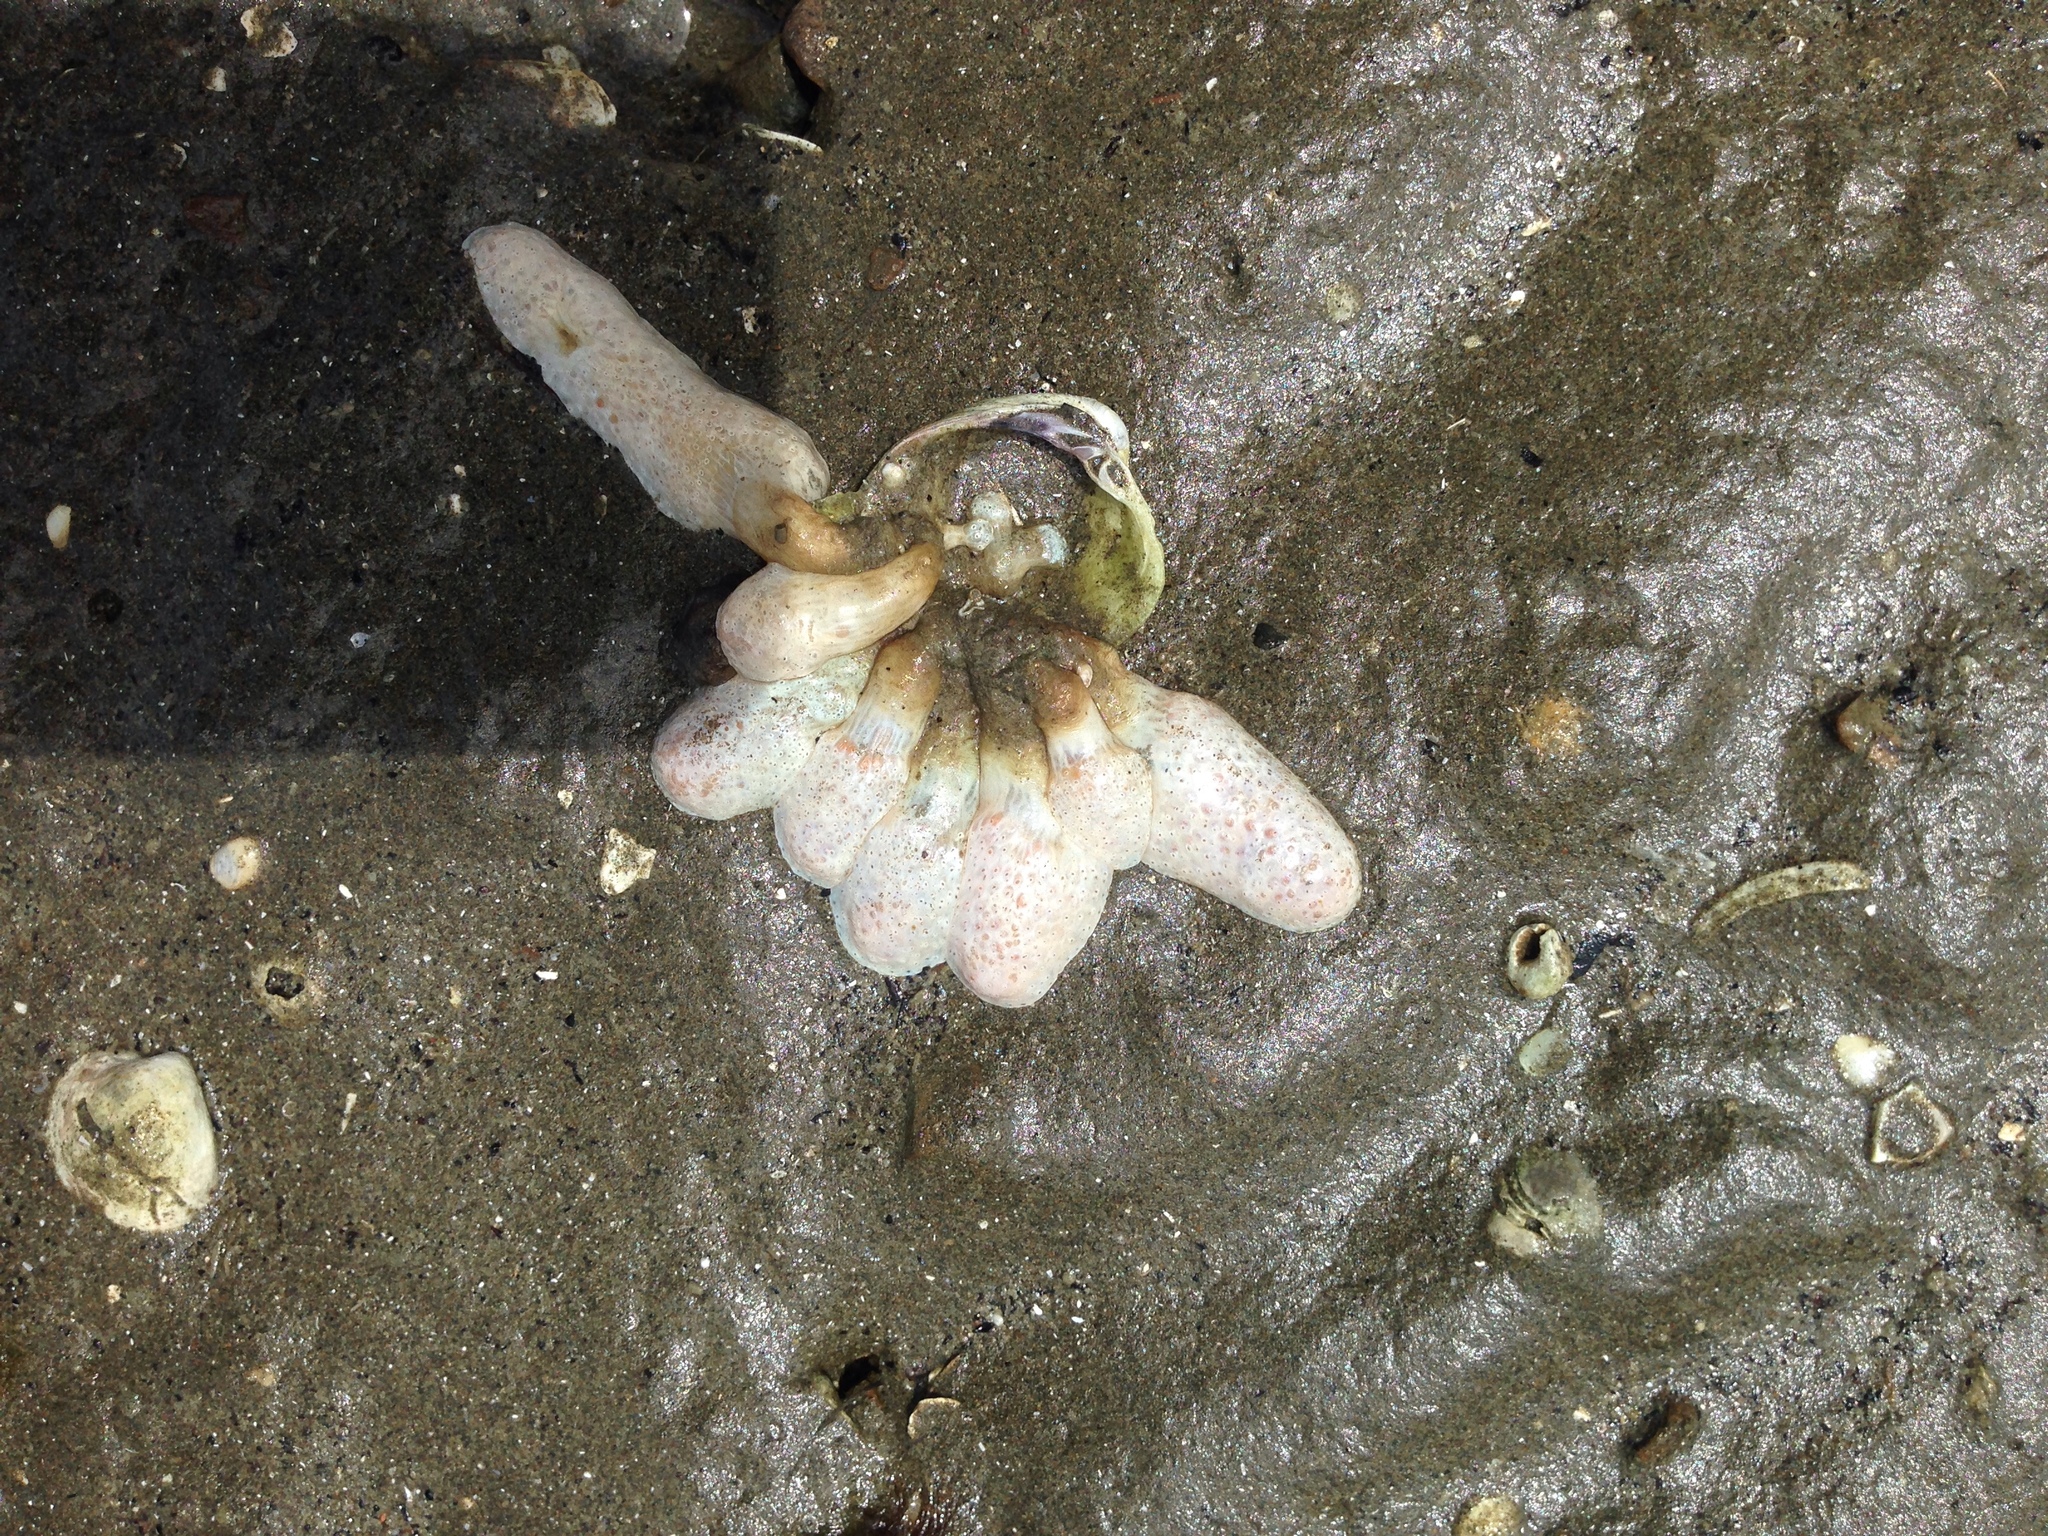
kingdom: Animalia
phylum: Chordata
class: Ascidiacea
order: Aplousobranchia
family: Polycitoridae
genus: Eudistoma
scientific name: Eudistoma elongatum
